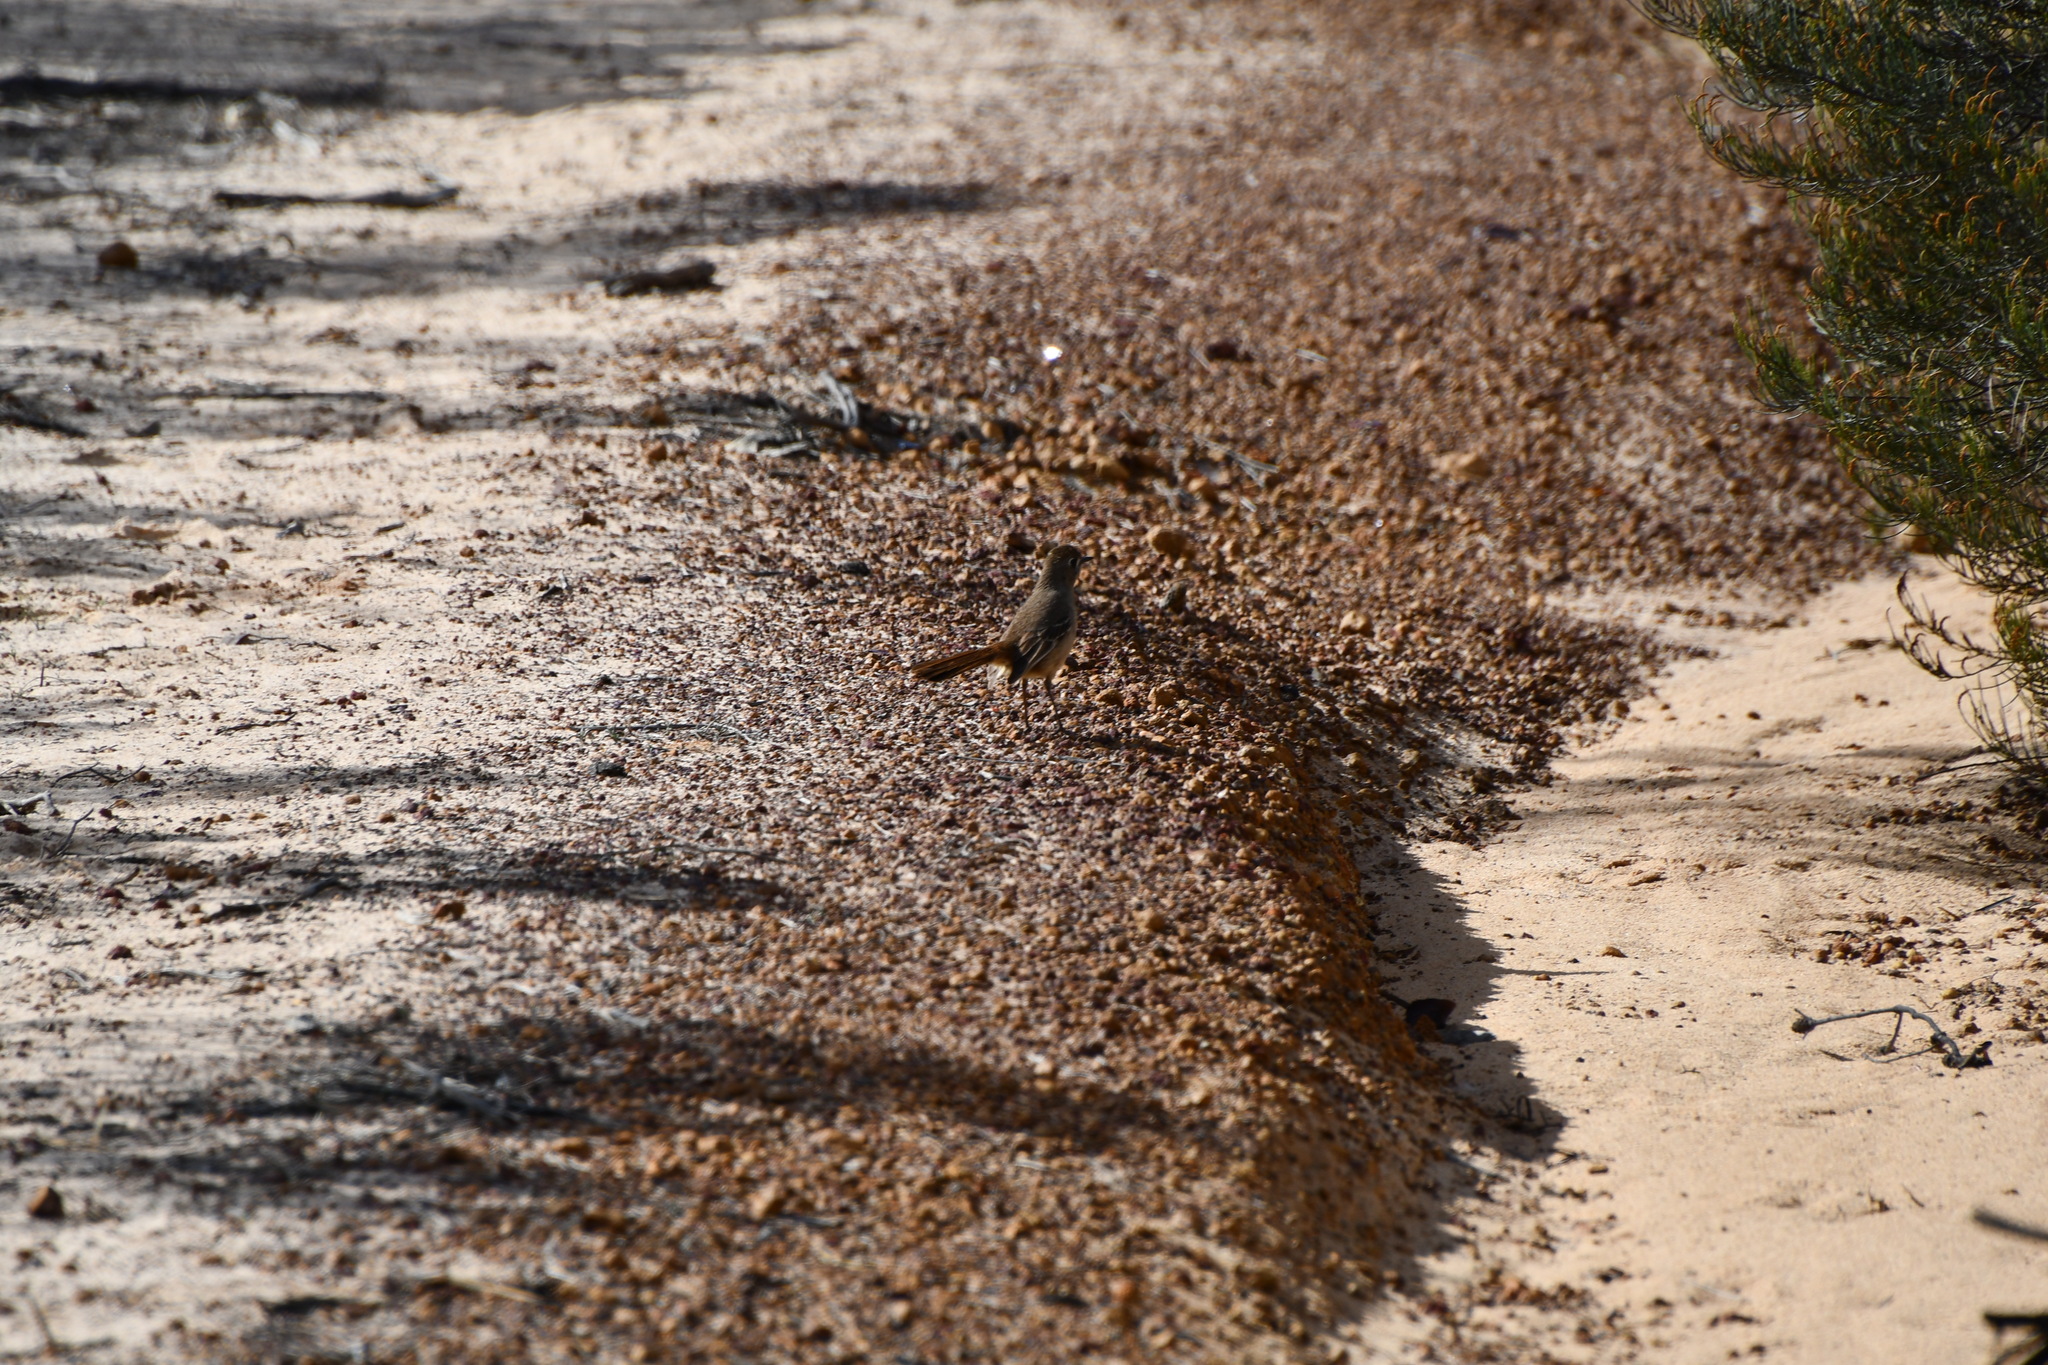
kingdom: Animalia
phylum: Chordata
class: Aves
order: Passeriformes
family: Petroicidae
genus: Drymodes
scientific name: Drymodes brunneopygia
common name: Southern scrub robin
